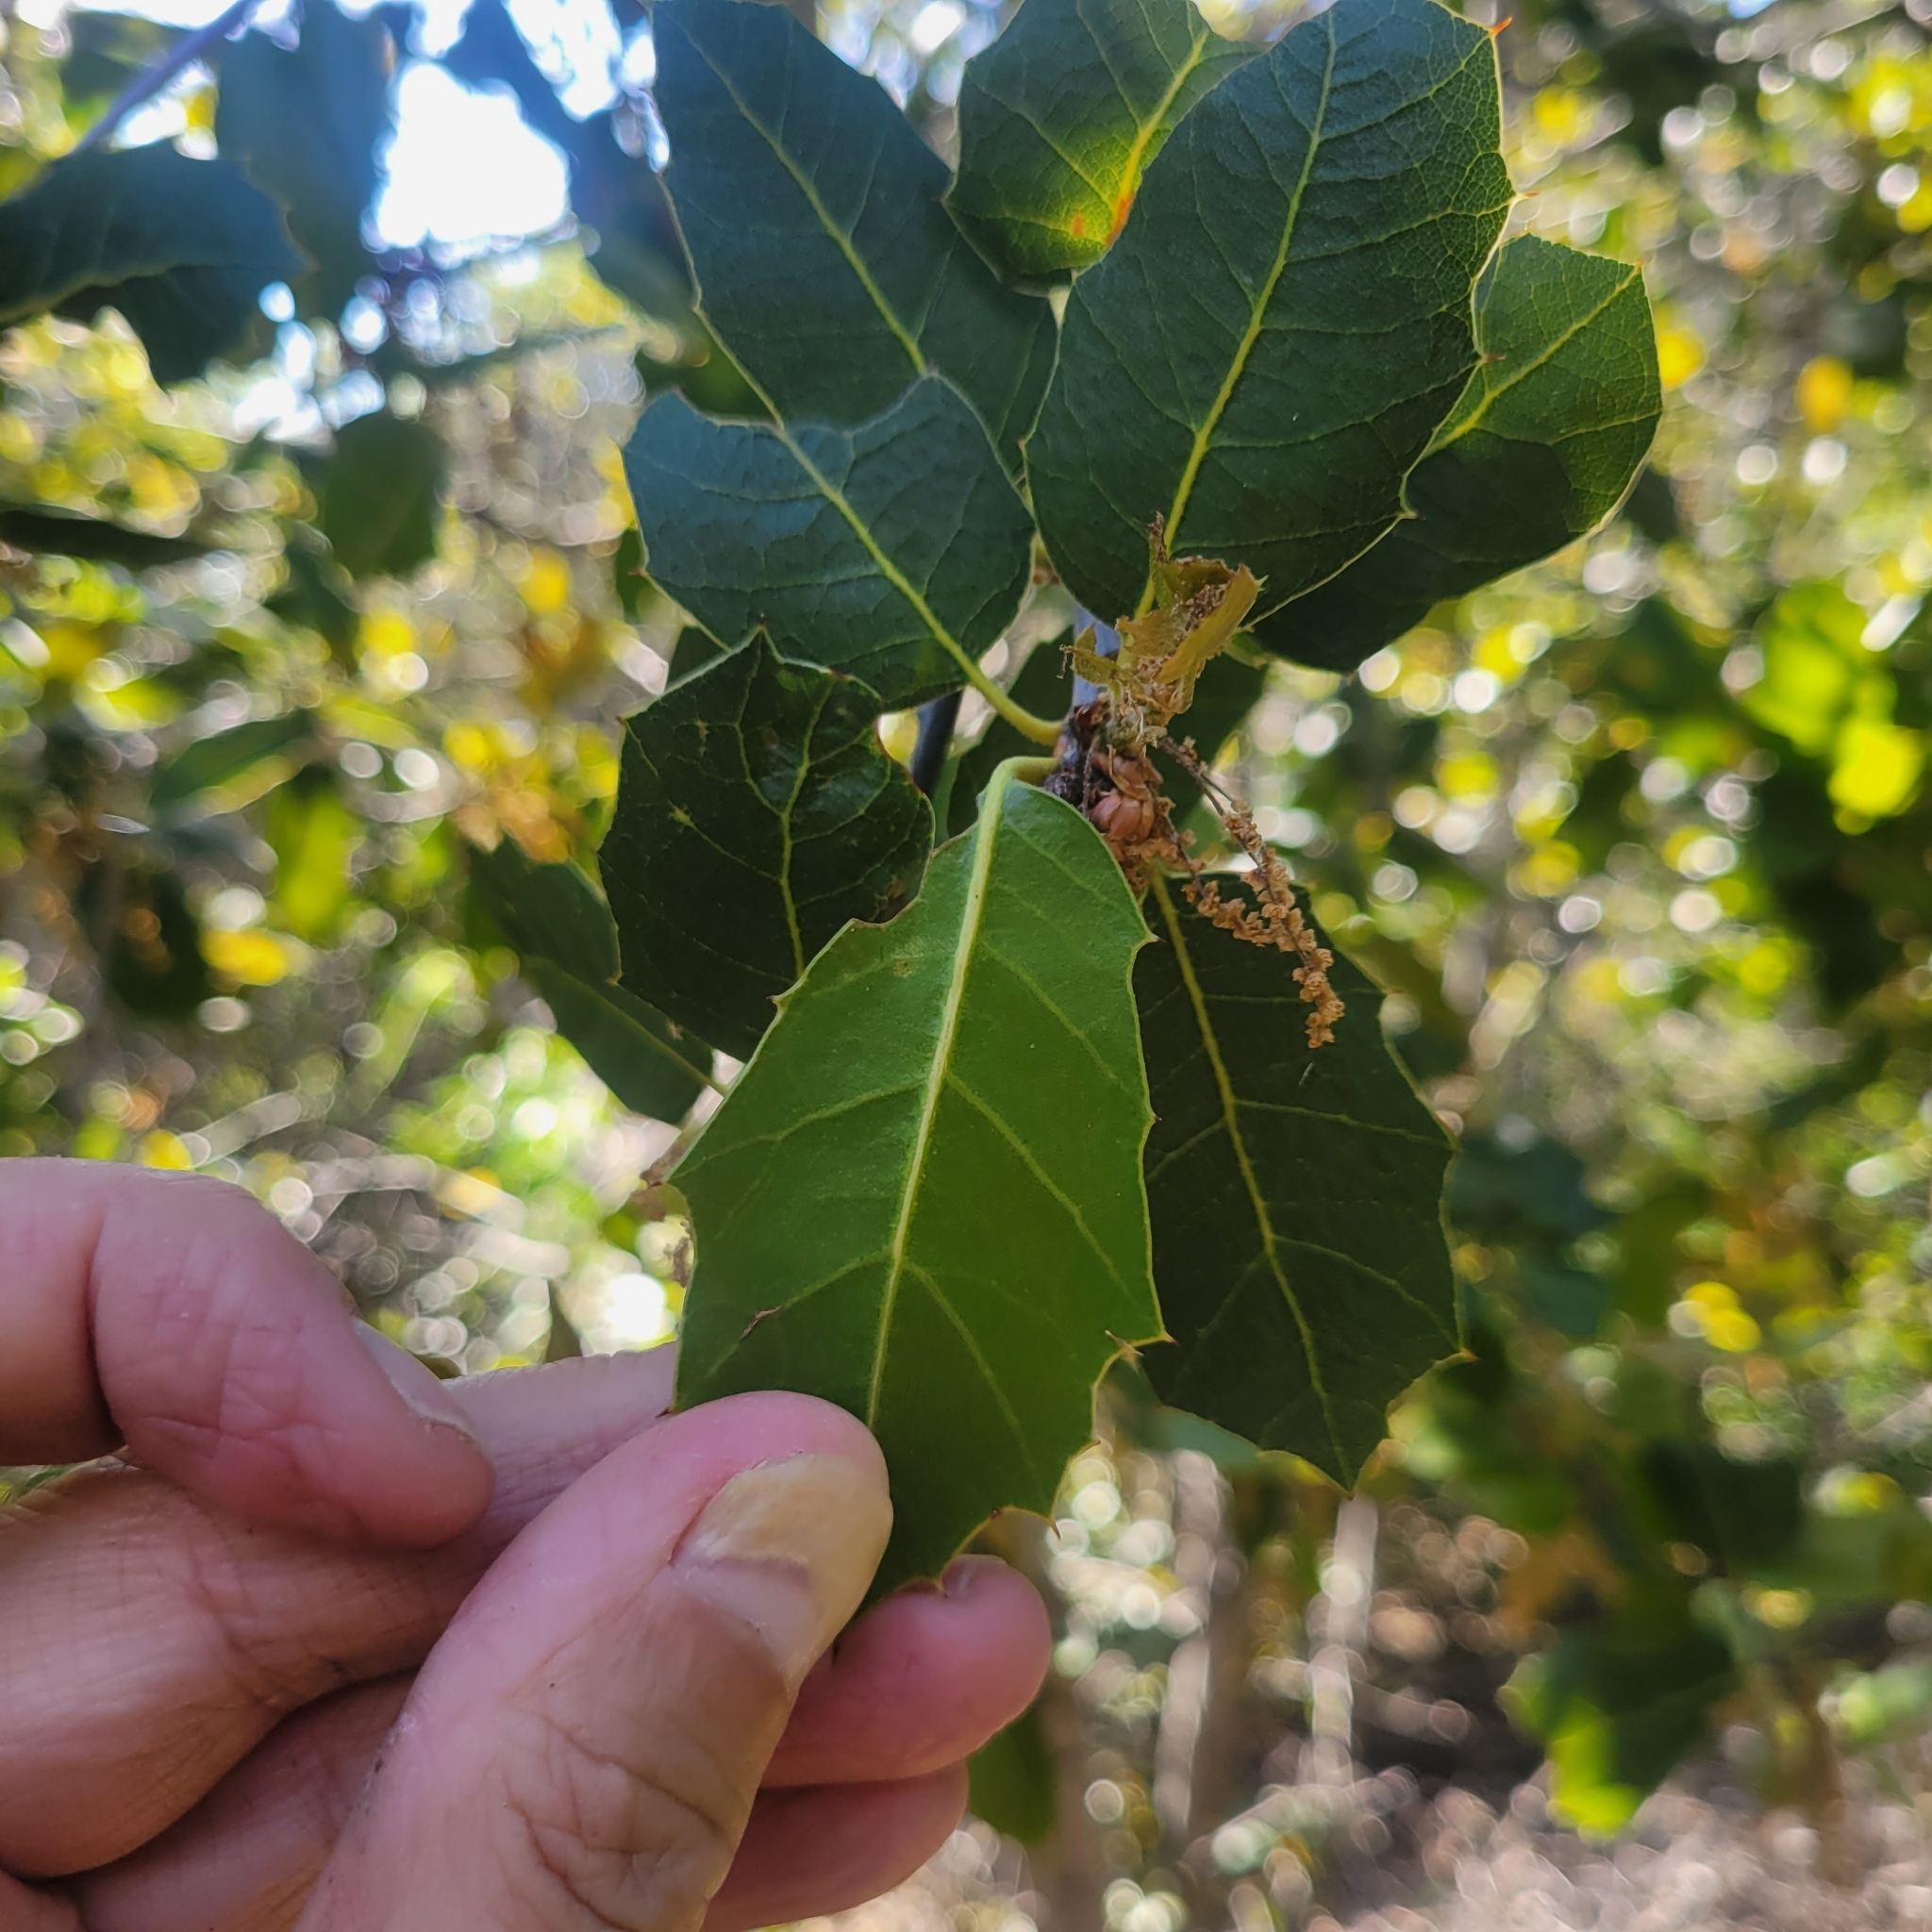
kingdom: Plantae
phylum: Tracheophyta
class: Magnoliopsida
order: Fagales
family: Fagaceae
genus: Quercus
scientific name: Quercus wislizeni
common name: Interior live oak
